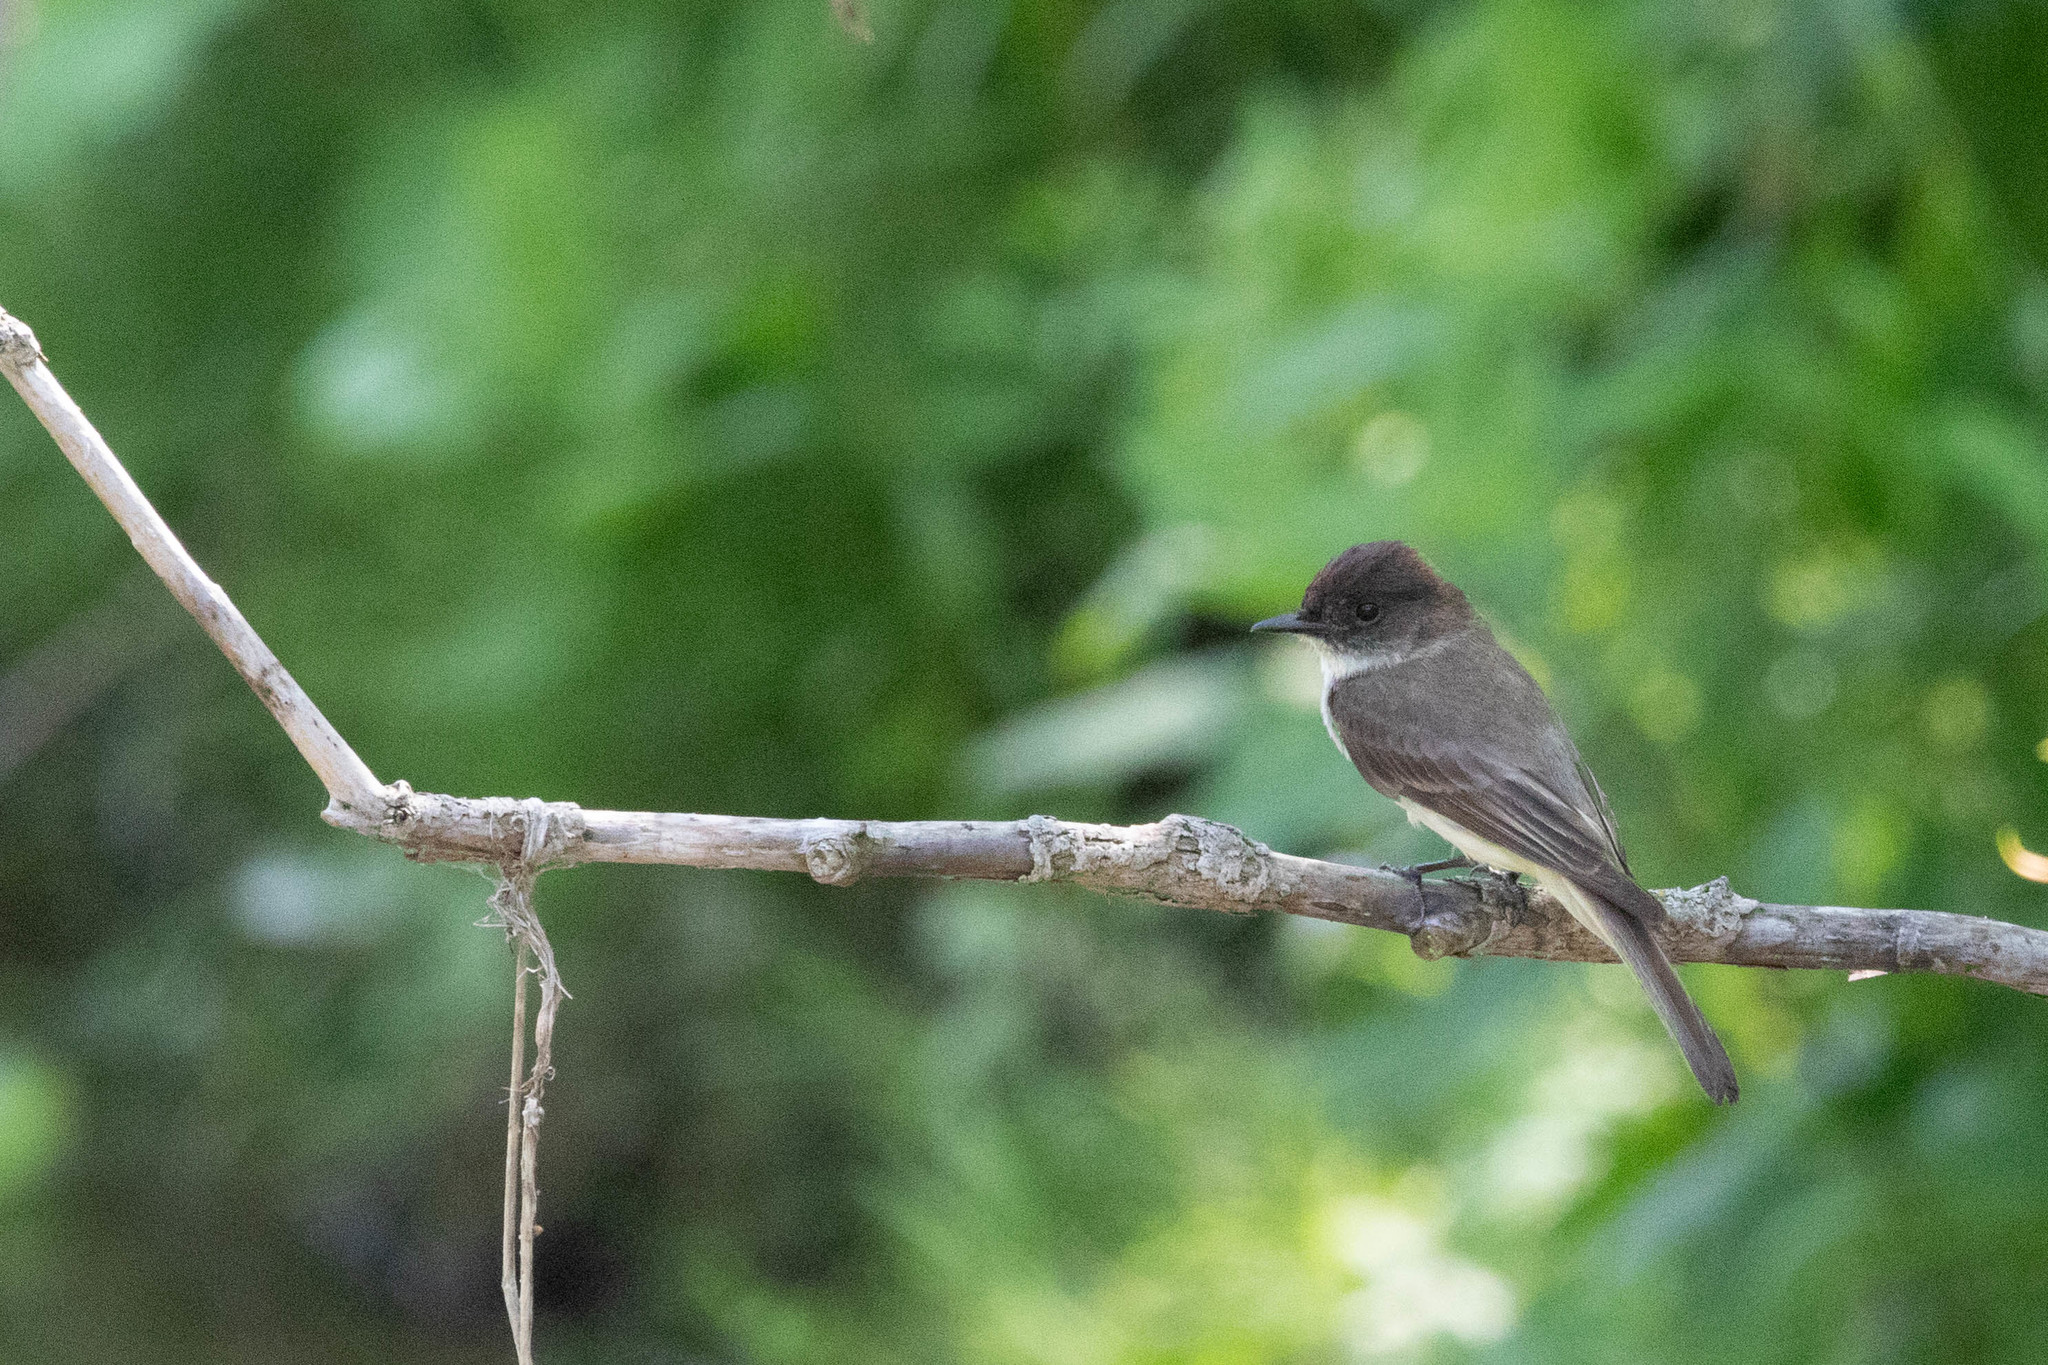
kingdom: Animalia
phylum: Chordata
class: Aves
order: Passeriformes
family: Tyrannidae
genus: Sayornis
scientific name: Sayornis phoebe
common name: Eastern phoebe
